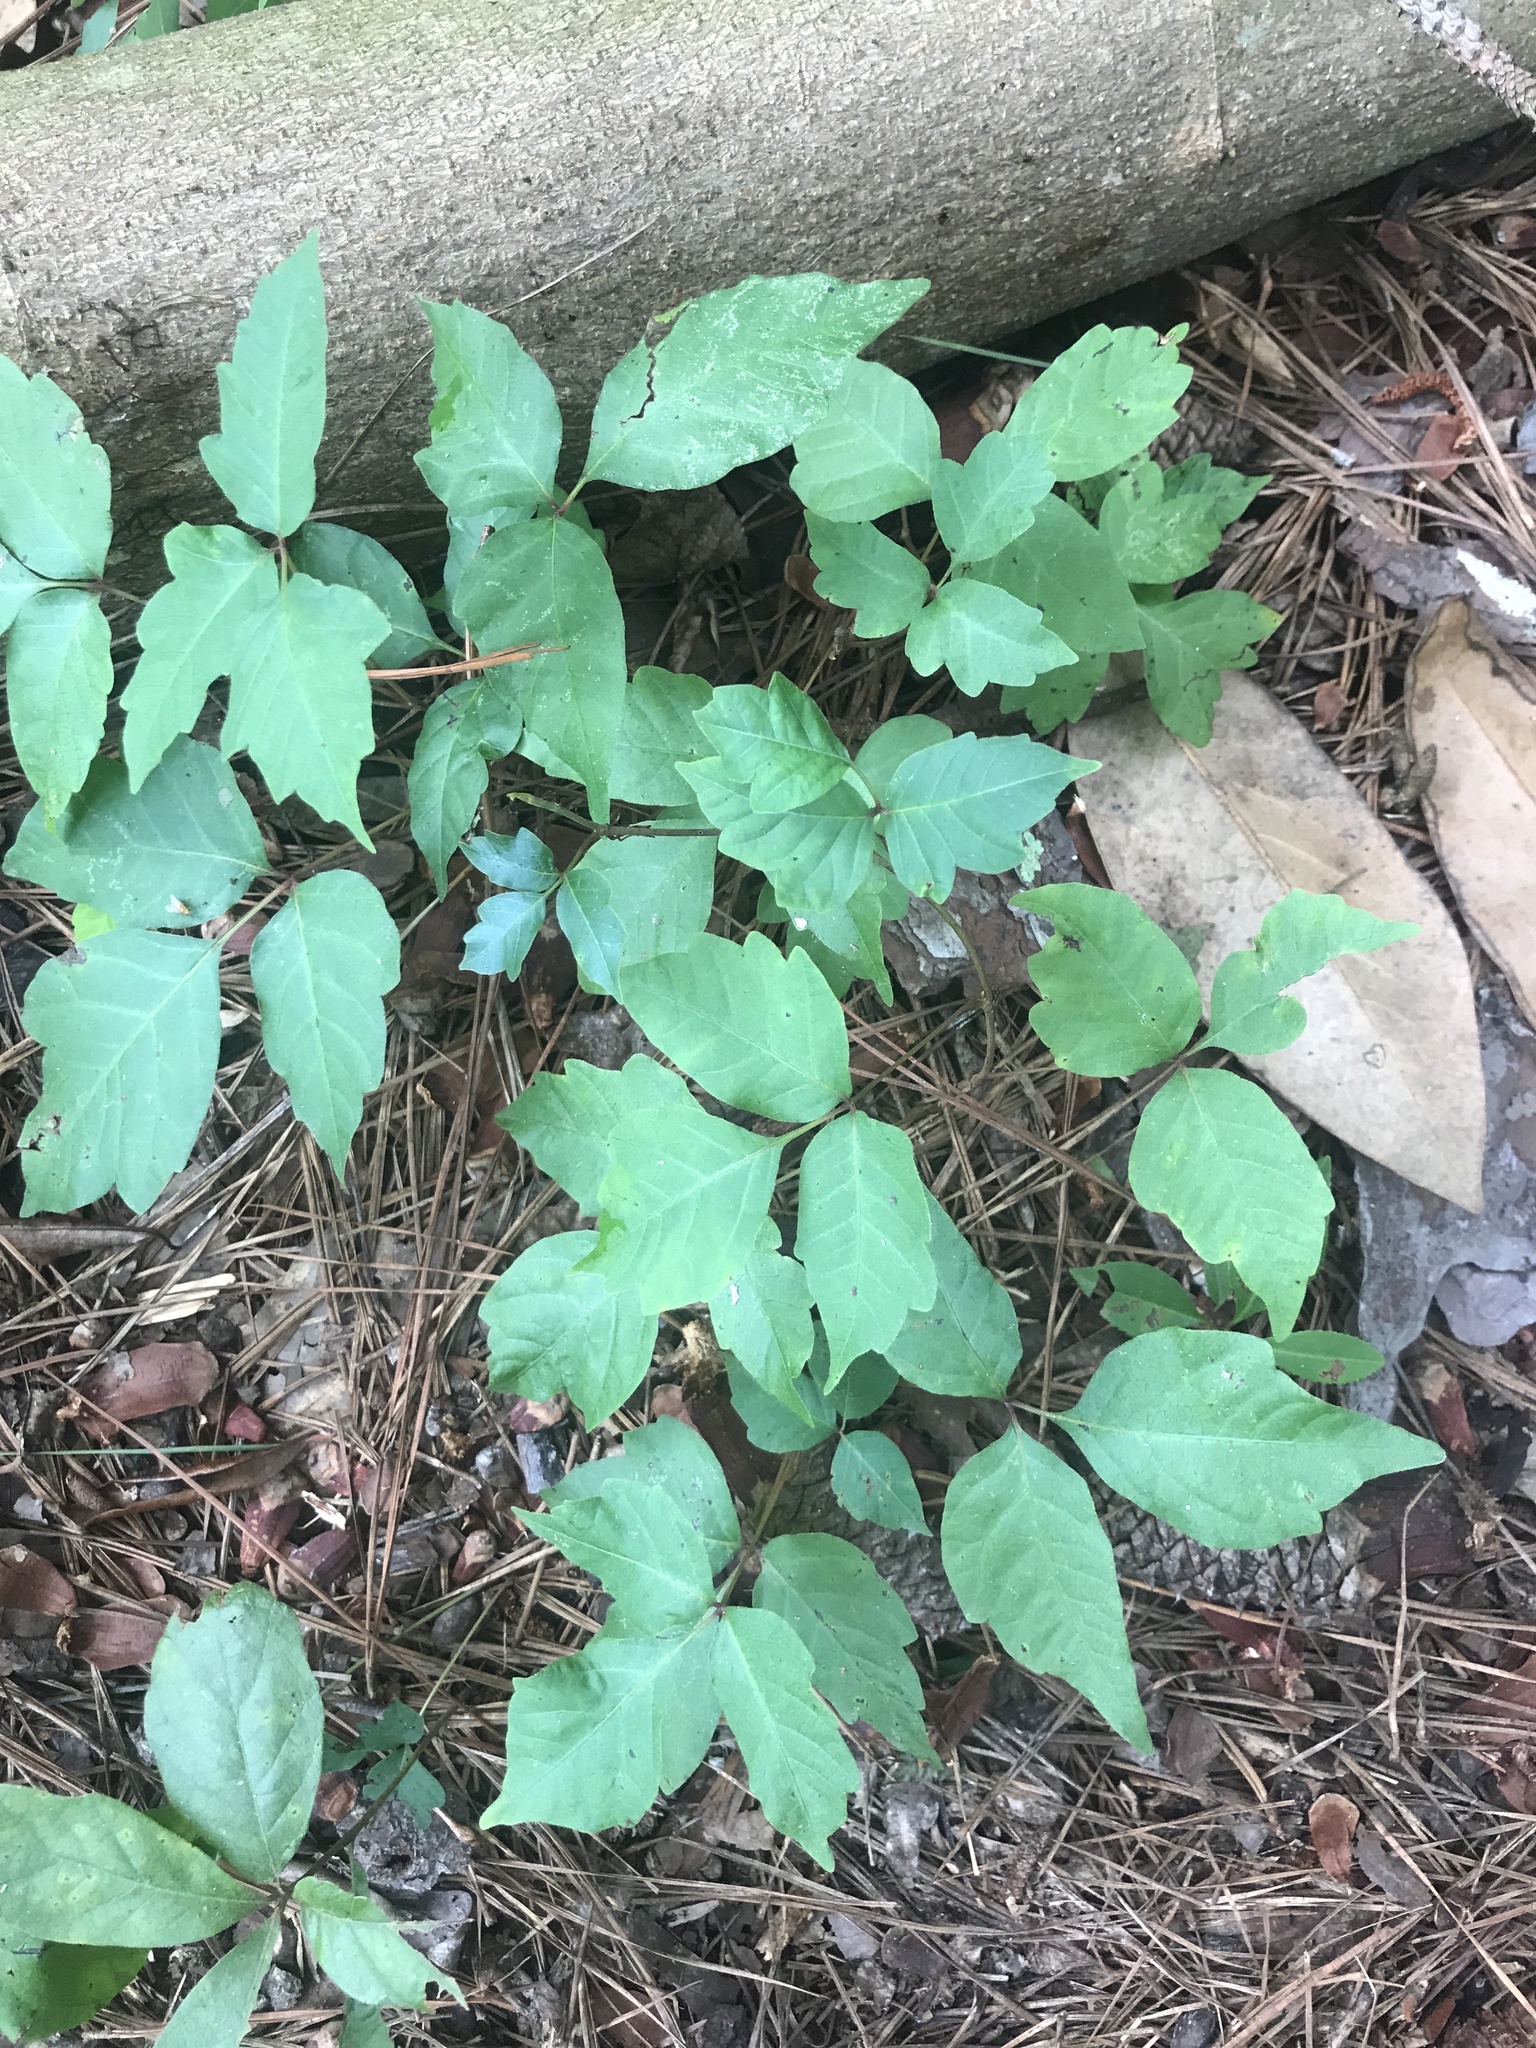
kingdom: Plantae
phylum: Tracheophyta
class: Magnoliopsida
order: Sapindales
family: Anacardiaceae
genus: Toxicodendron
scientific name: Toxicodendron radicans
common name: Poison ivy
